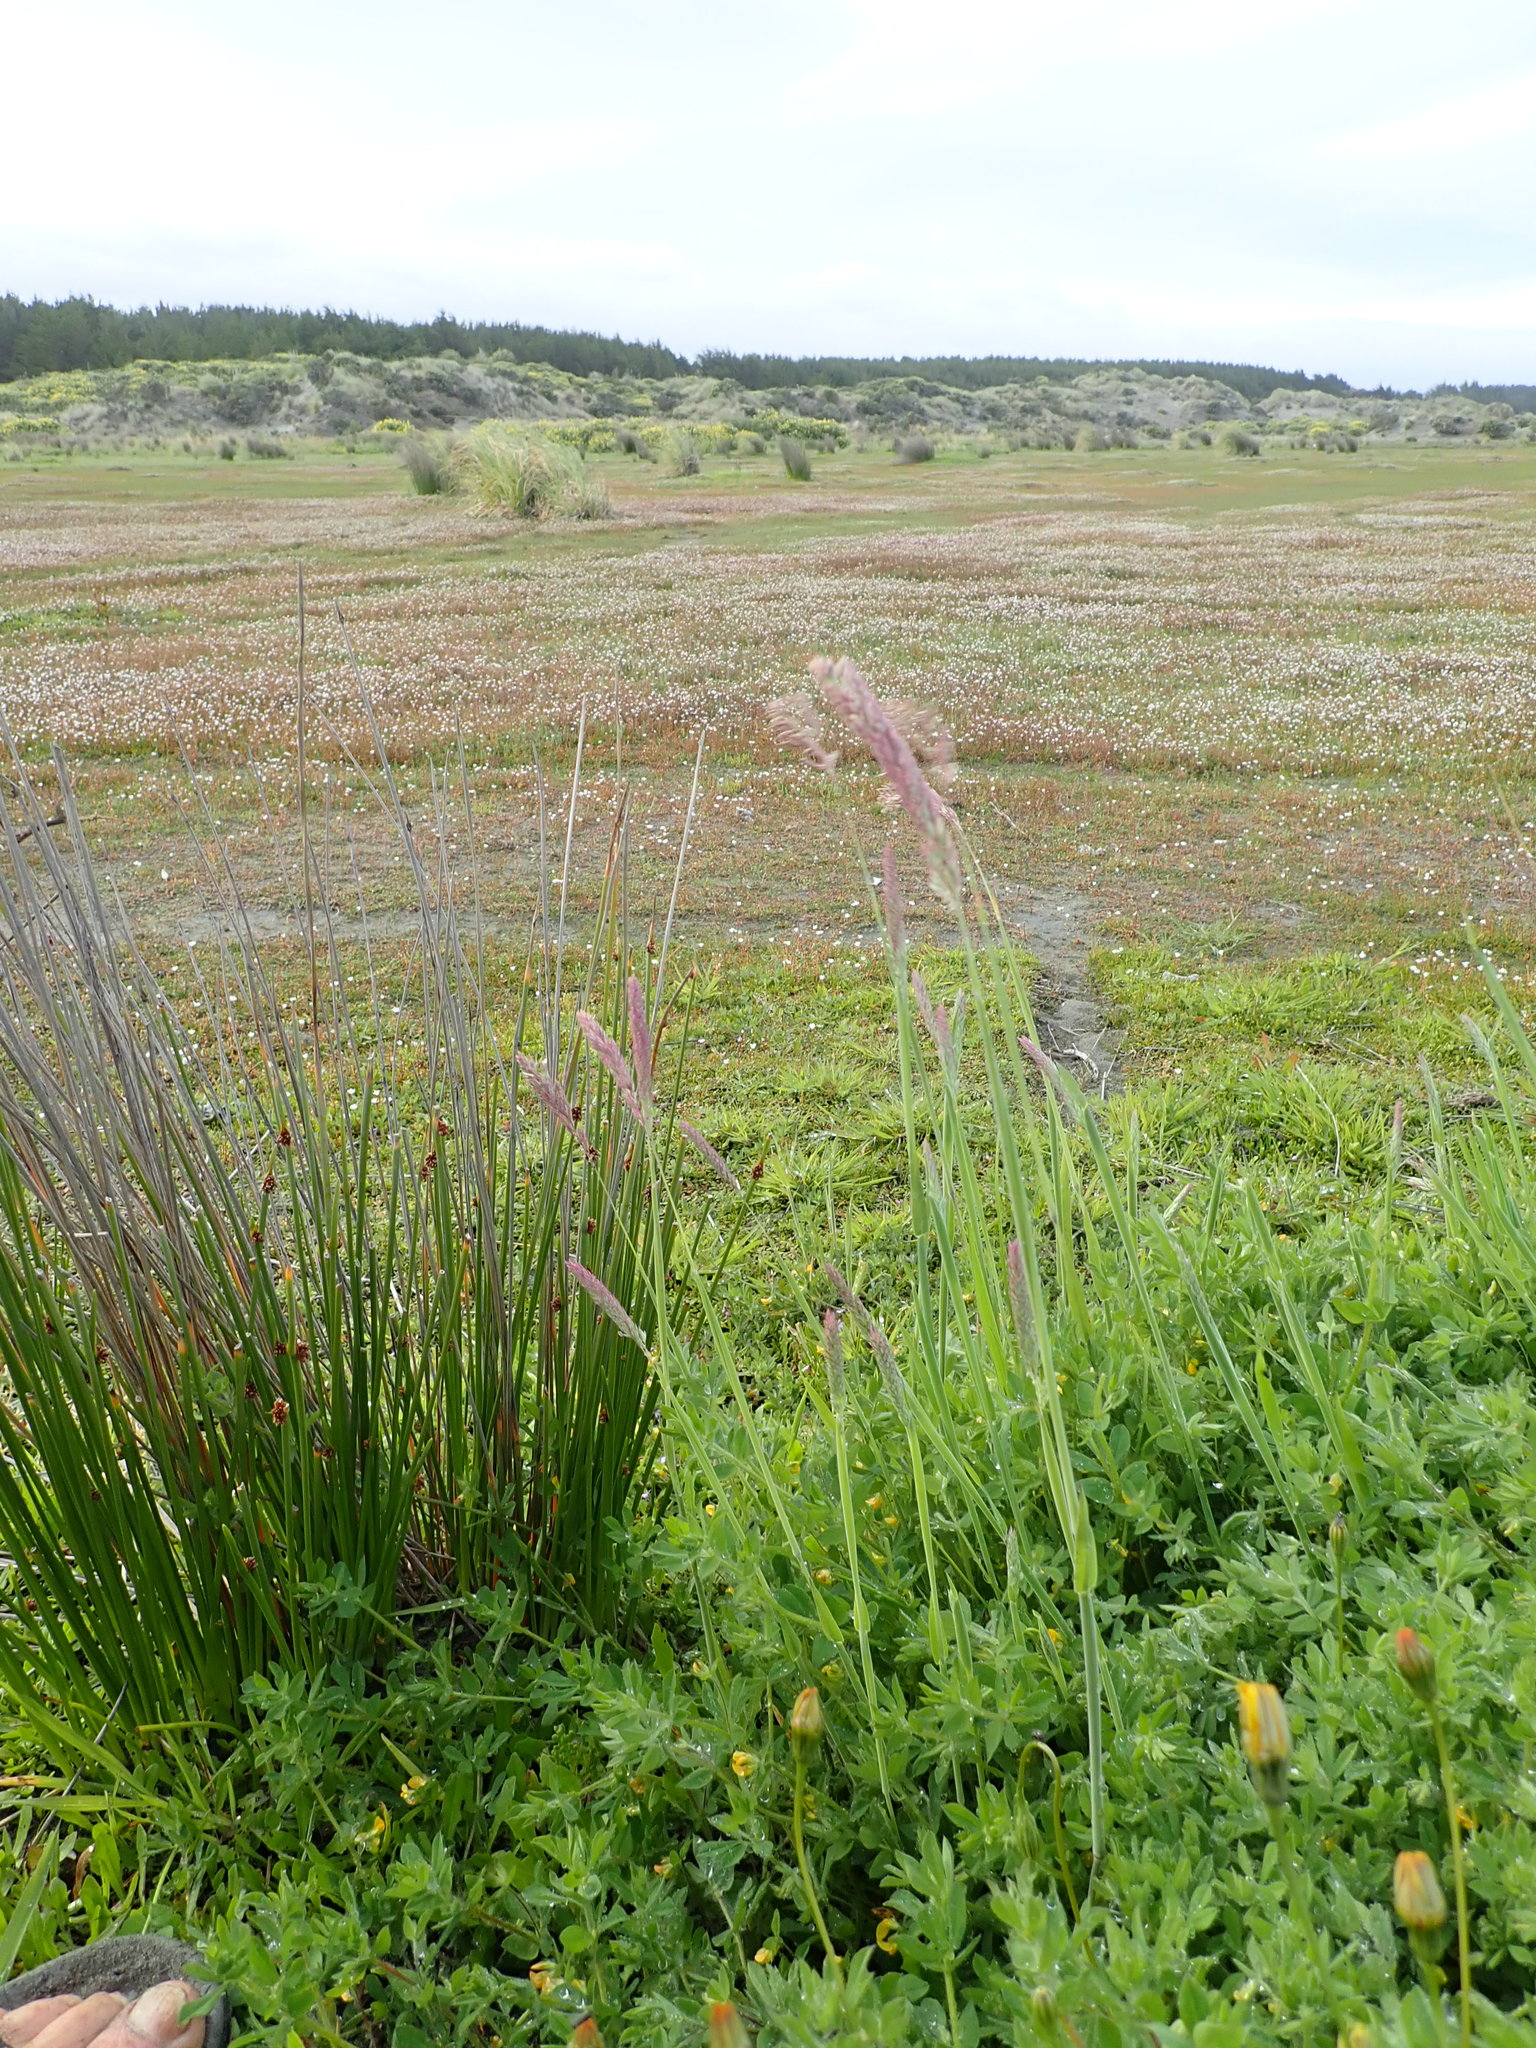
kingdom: Plantae
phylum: Tracheophyta
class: Liliopsida
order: Poales
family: Poaceae
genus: Holcus
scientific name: Holcus lanatus
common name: Yorkshire-fog
